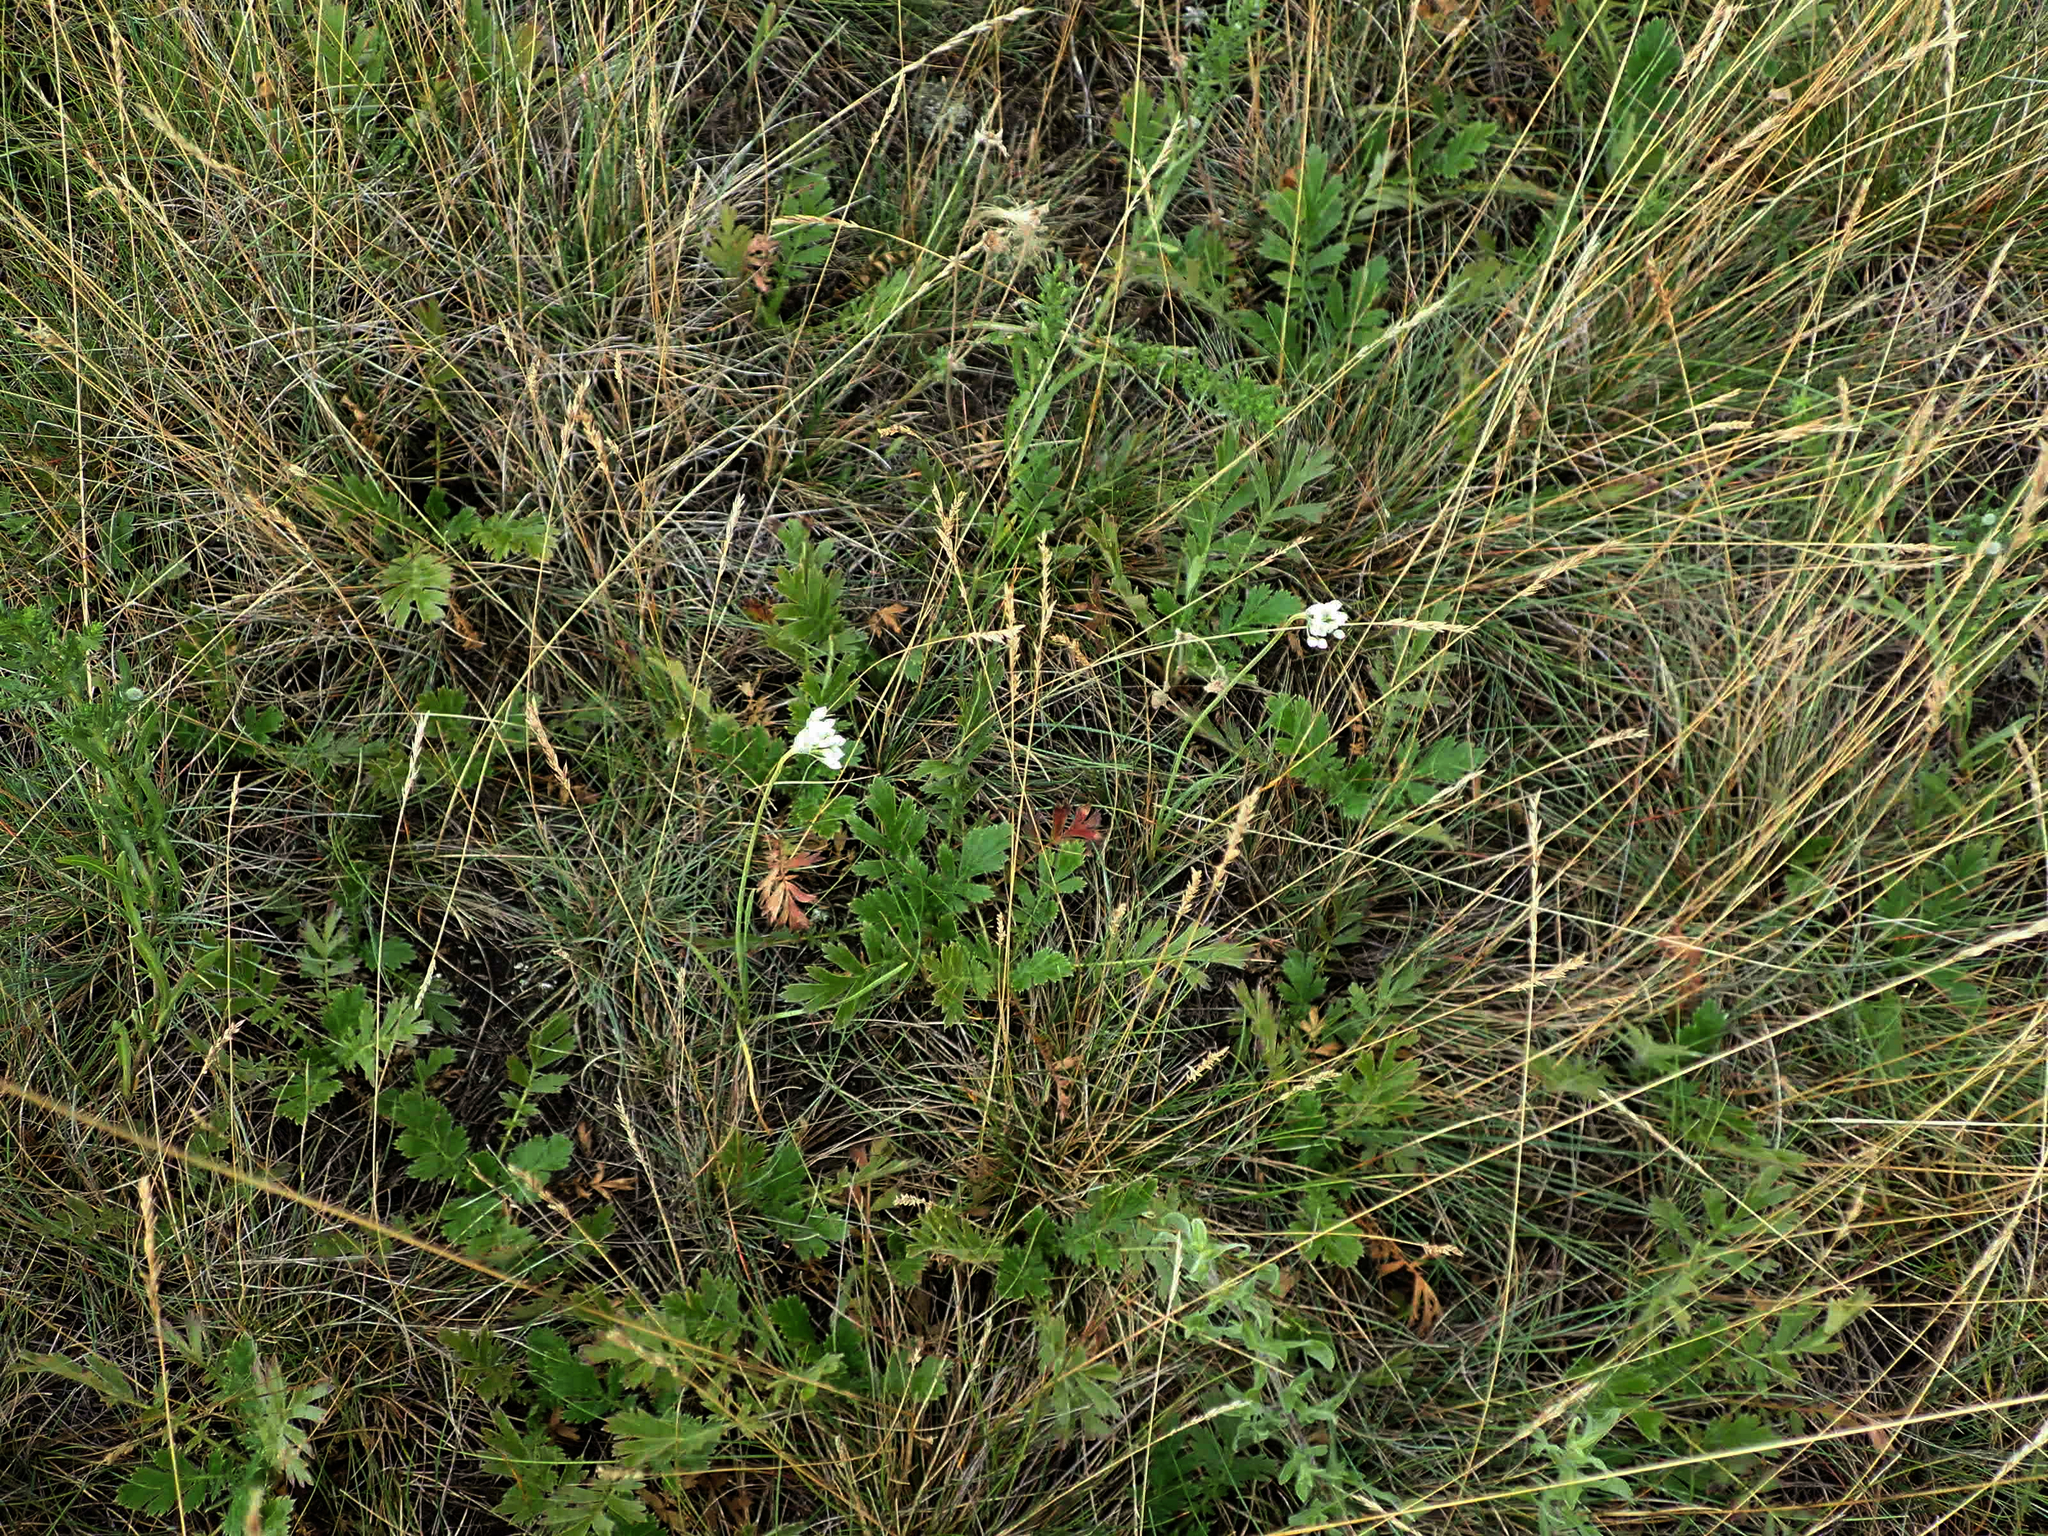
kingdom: Plantae
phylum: Tracheophyta
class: Liliopsida
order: Asparagales
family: Amaryllidaceae
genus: Allium
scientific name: Allium stellatum
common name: Autumn onion
